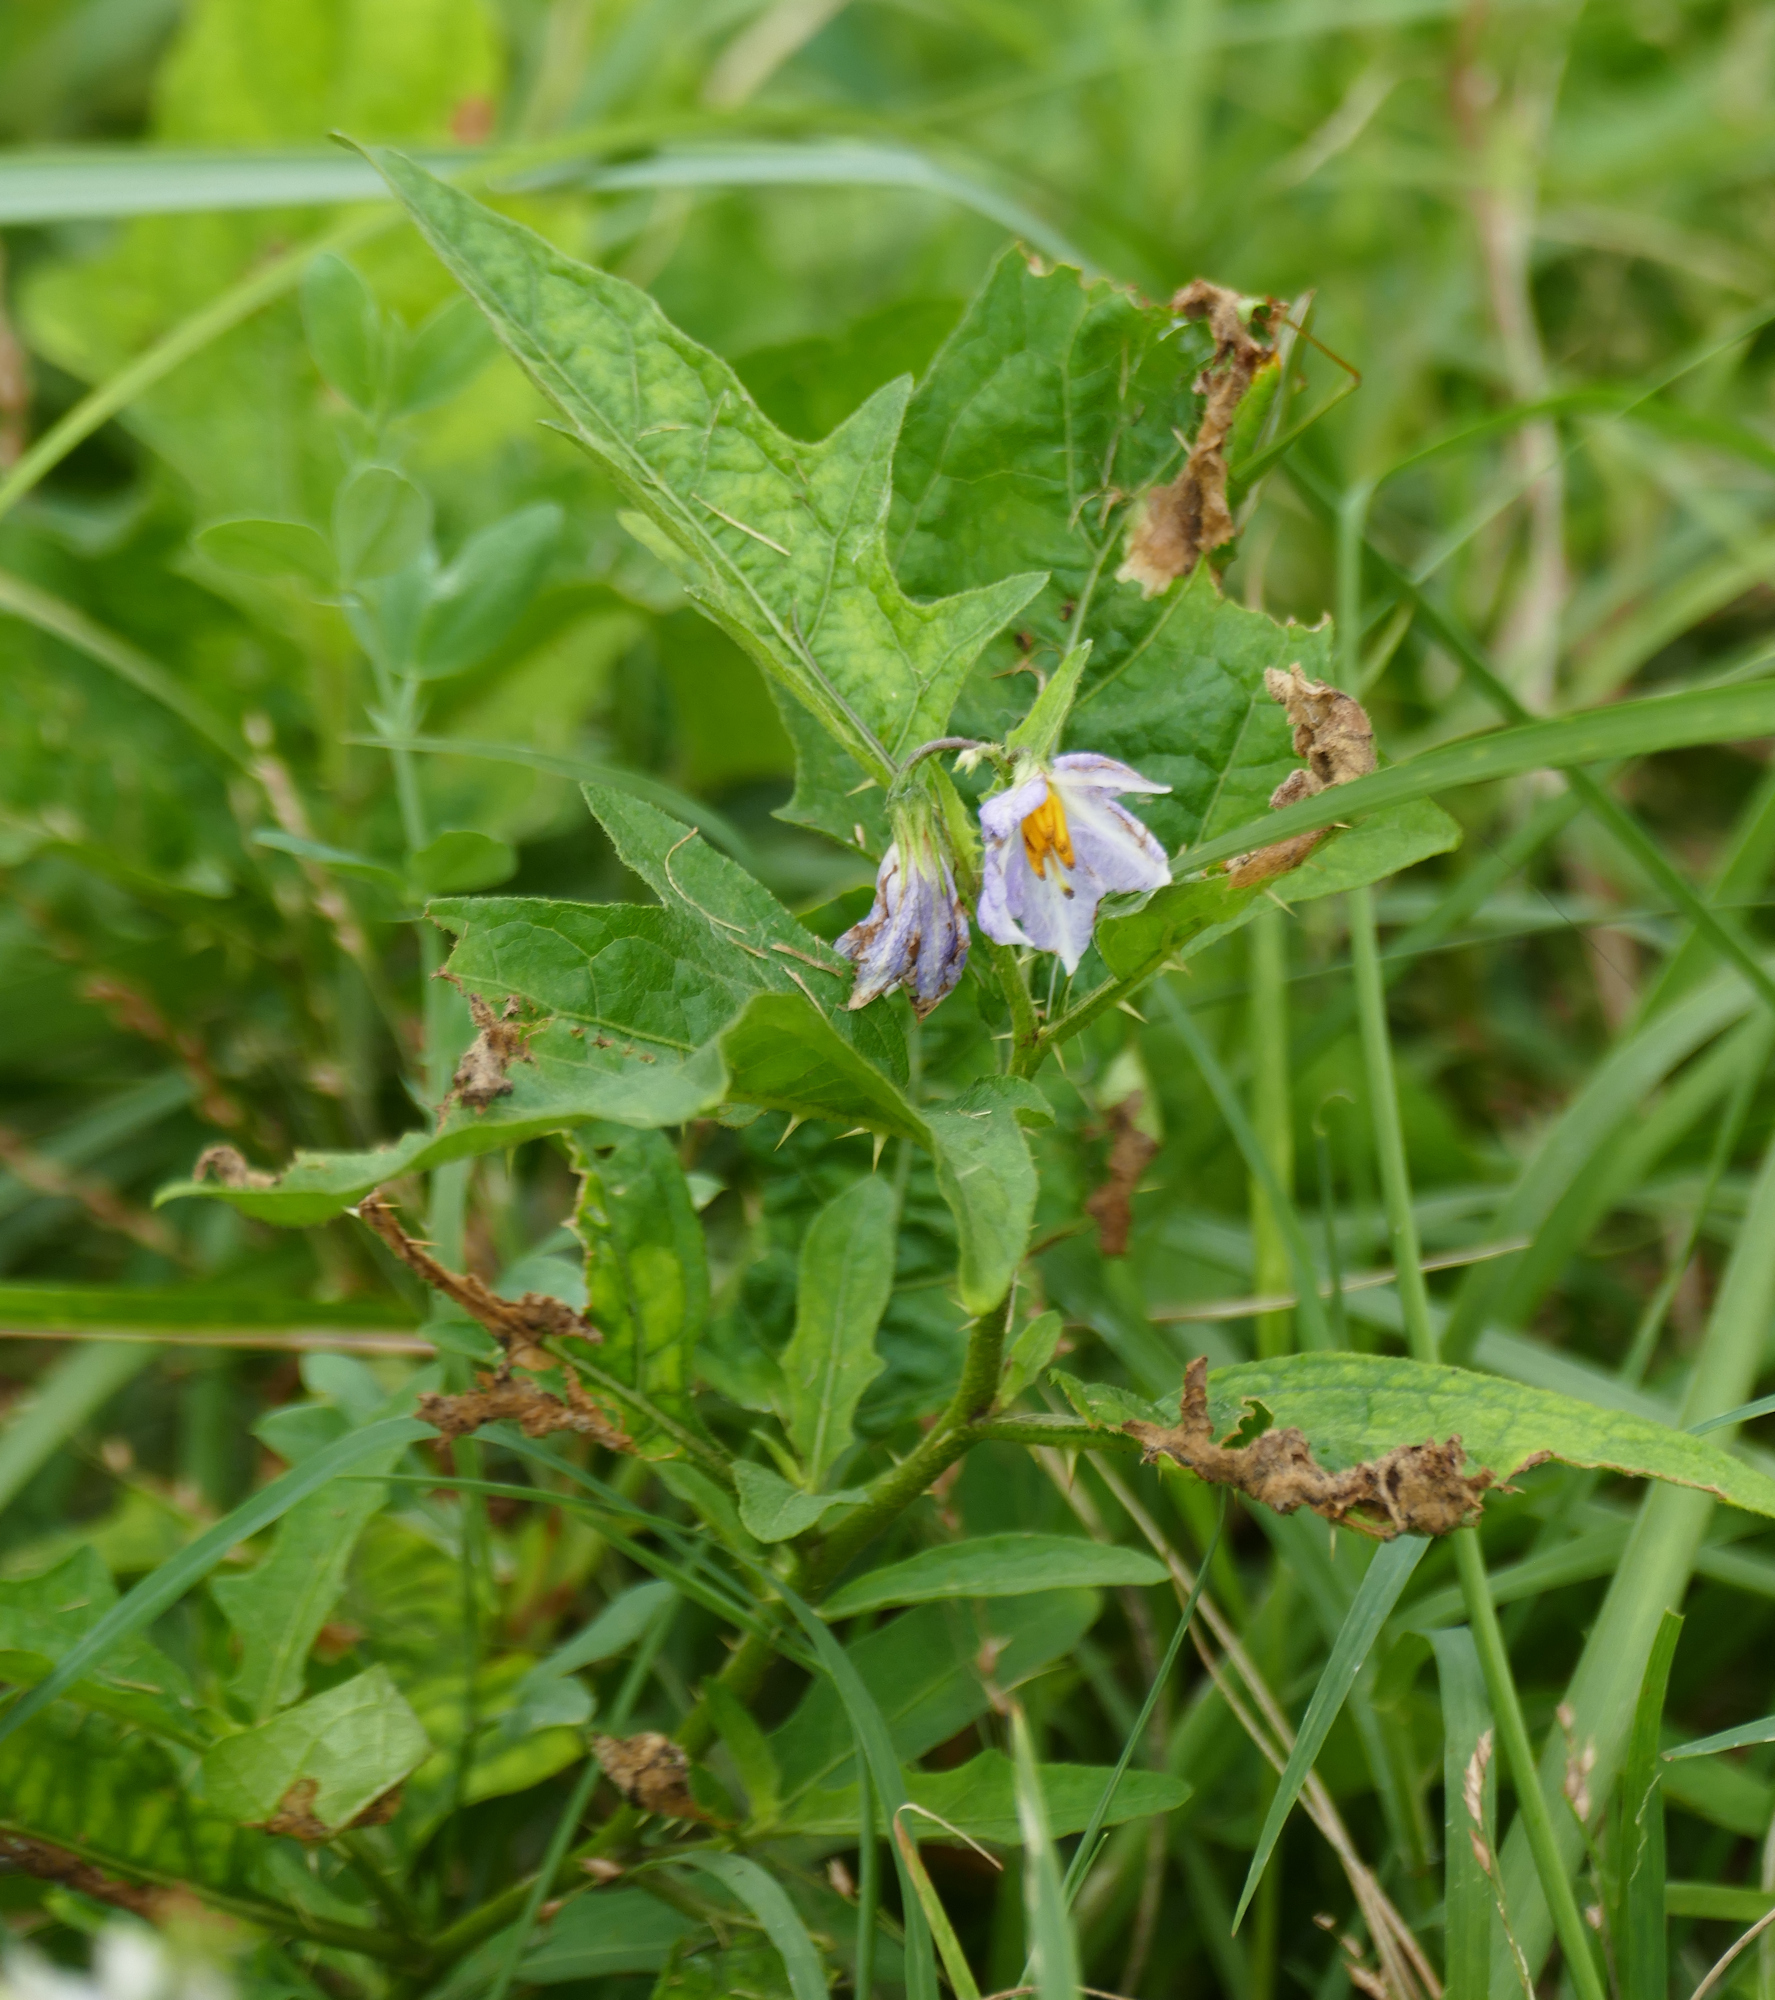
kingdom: Plantae
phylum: Tracheophyta
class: Magnoliopsida
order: Solanales
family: Solanaceae
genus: Solanum
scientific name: Solanum carolinense
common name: Horse-nettle
